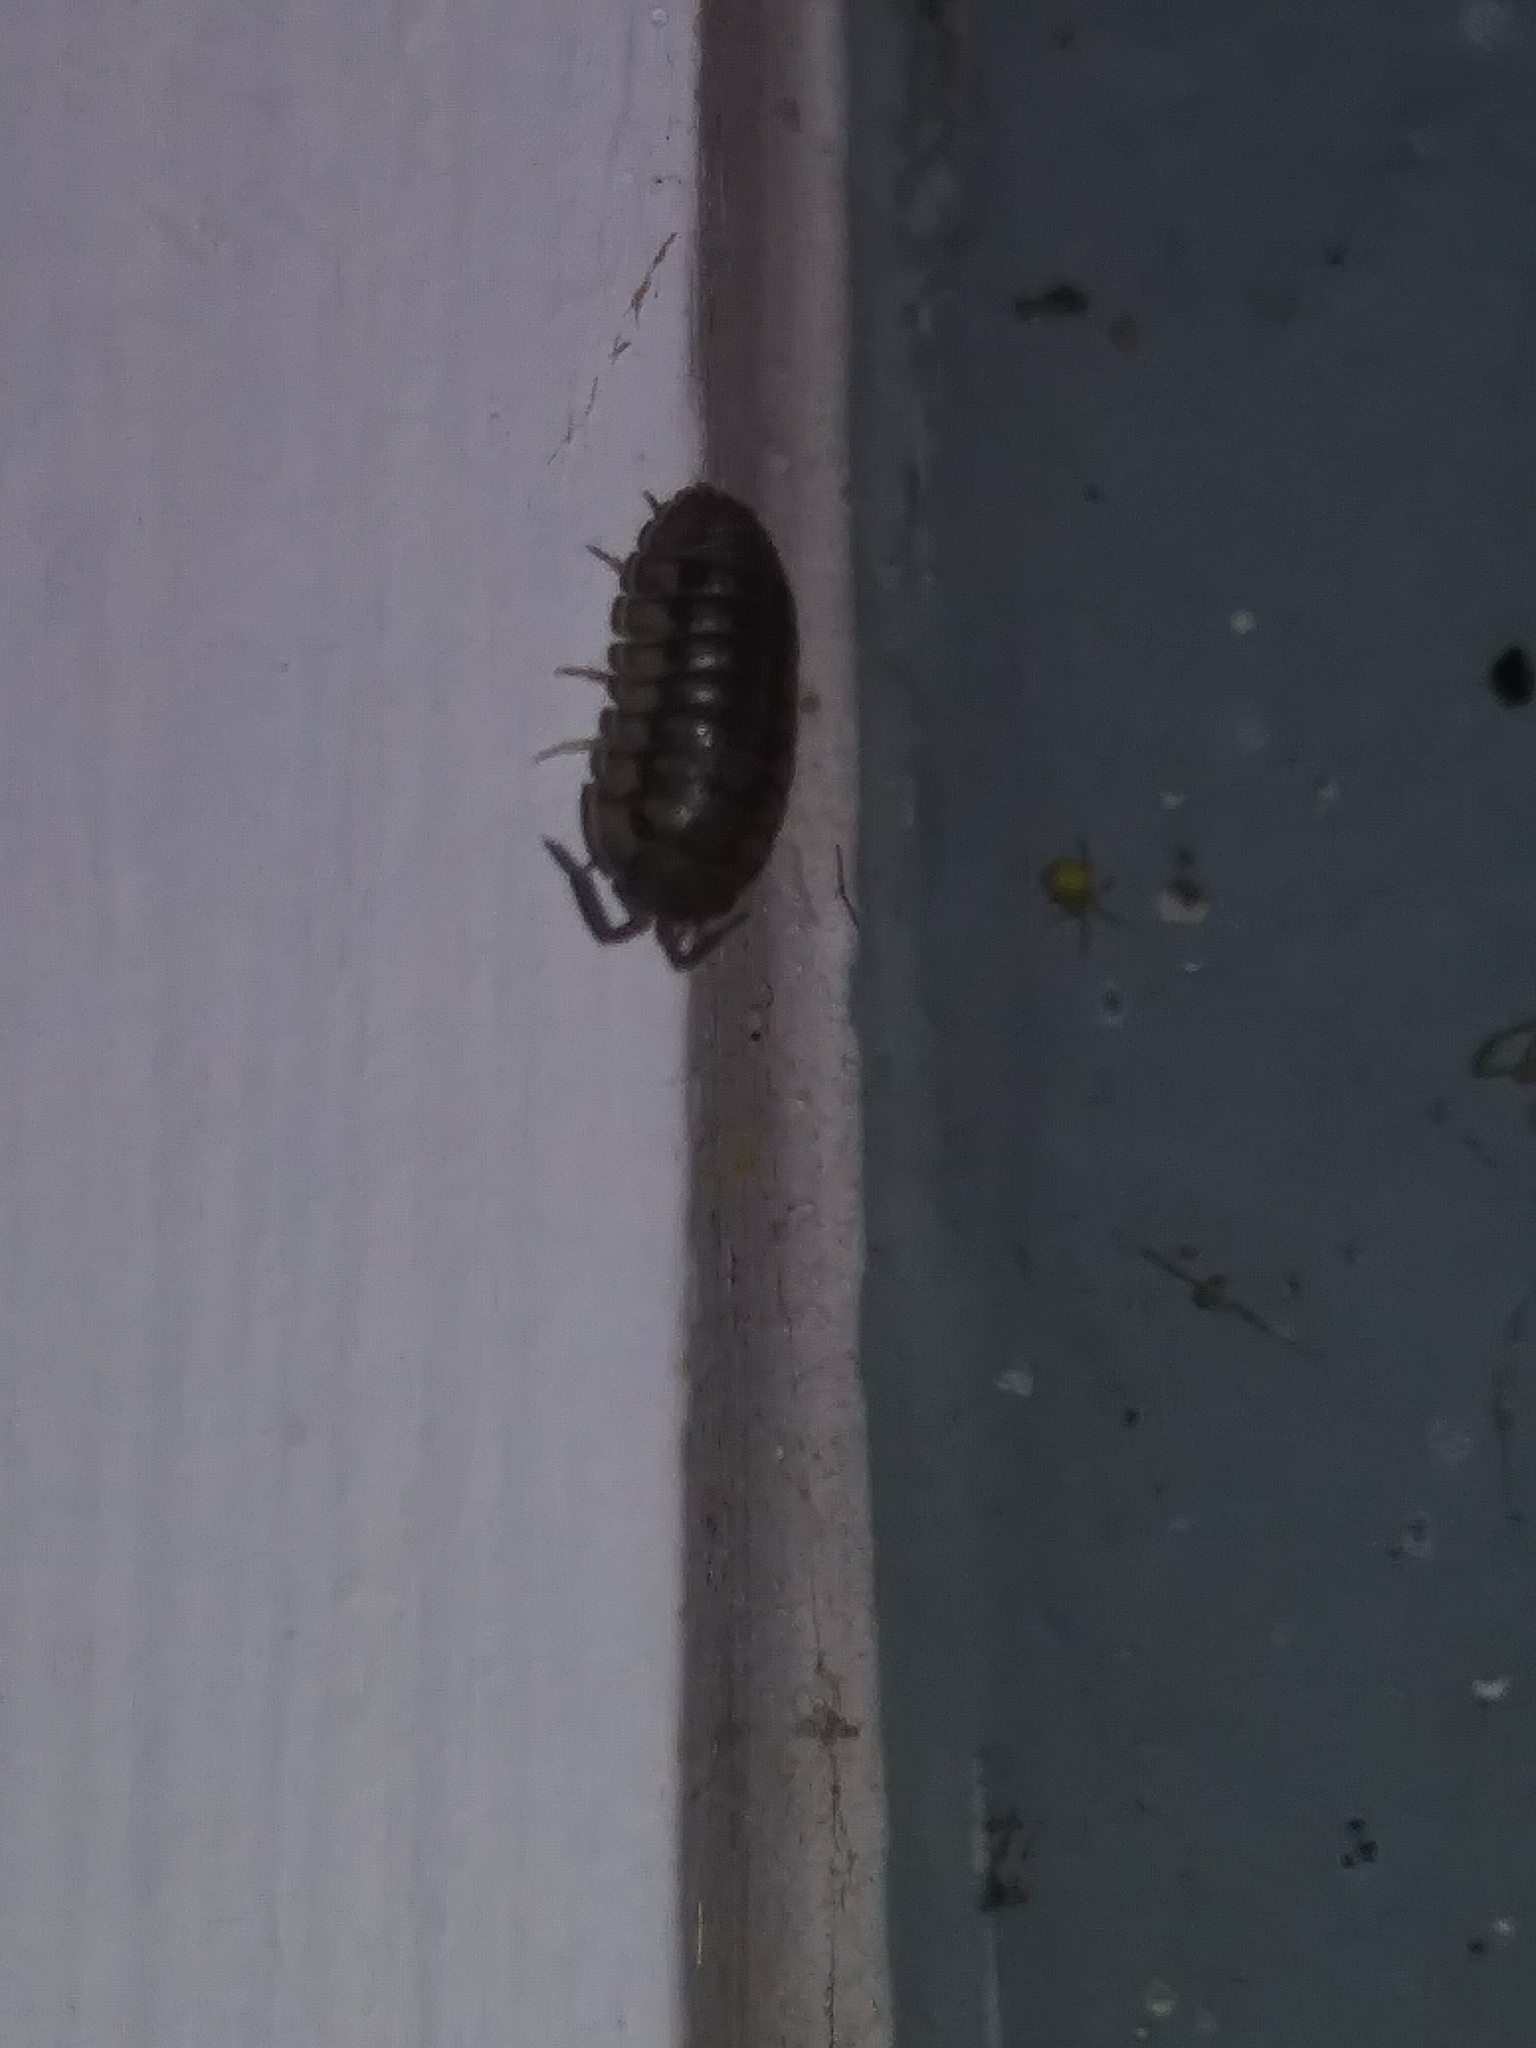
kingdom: Animalia
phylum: Arthropoda
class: Malacostraca
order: Isopoda
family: Armadillidiidae
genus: Armadillidium
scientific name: Armadillidium nasatum
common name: Isopod
